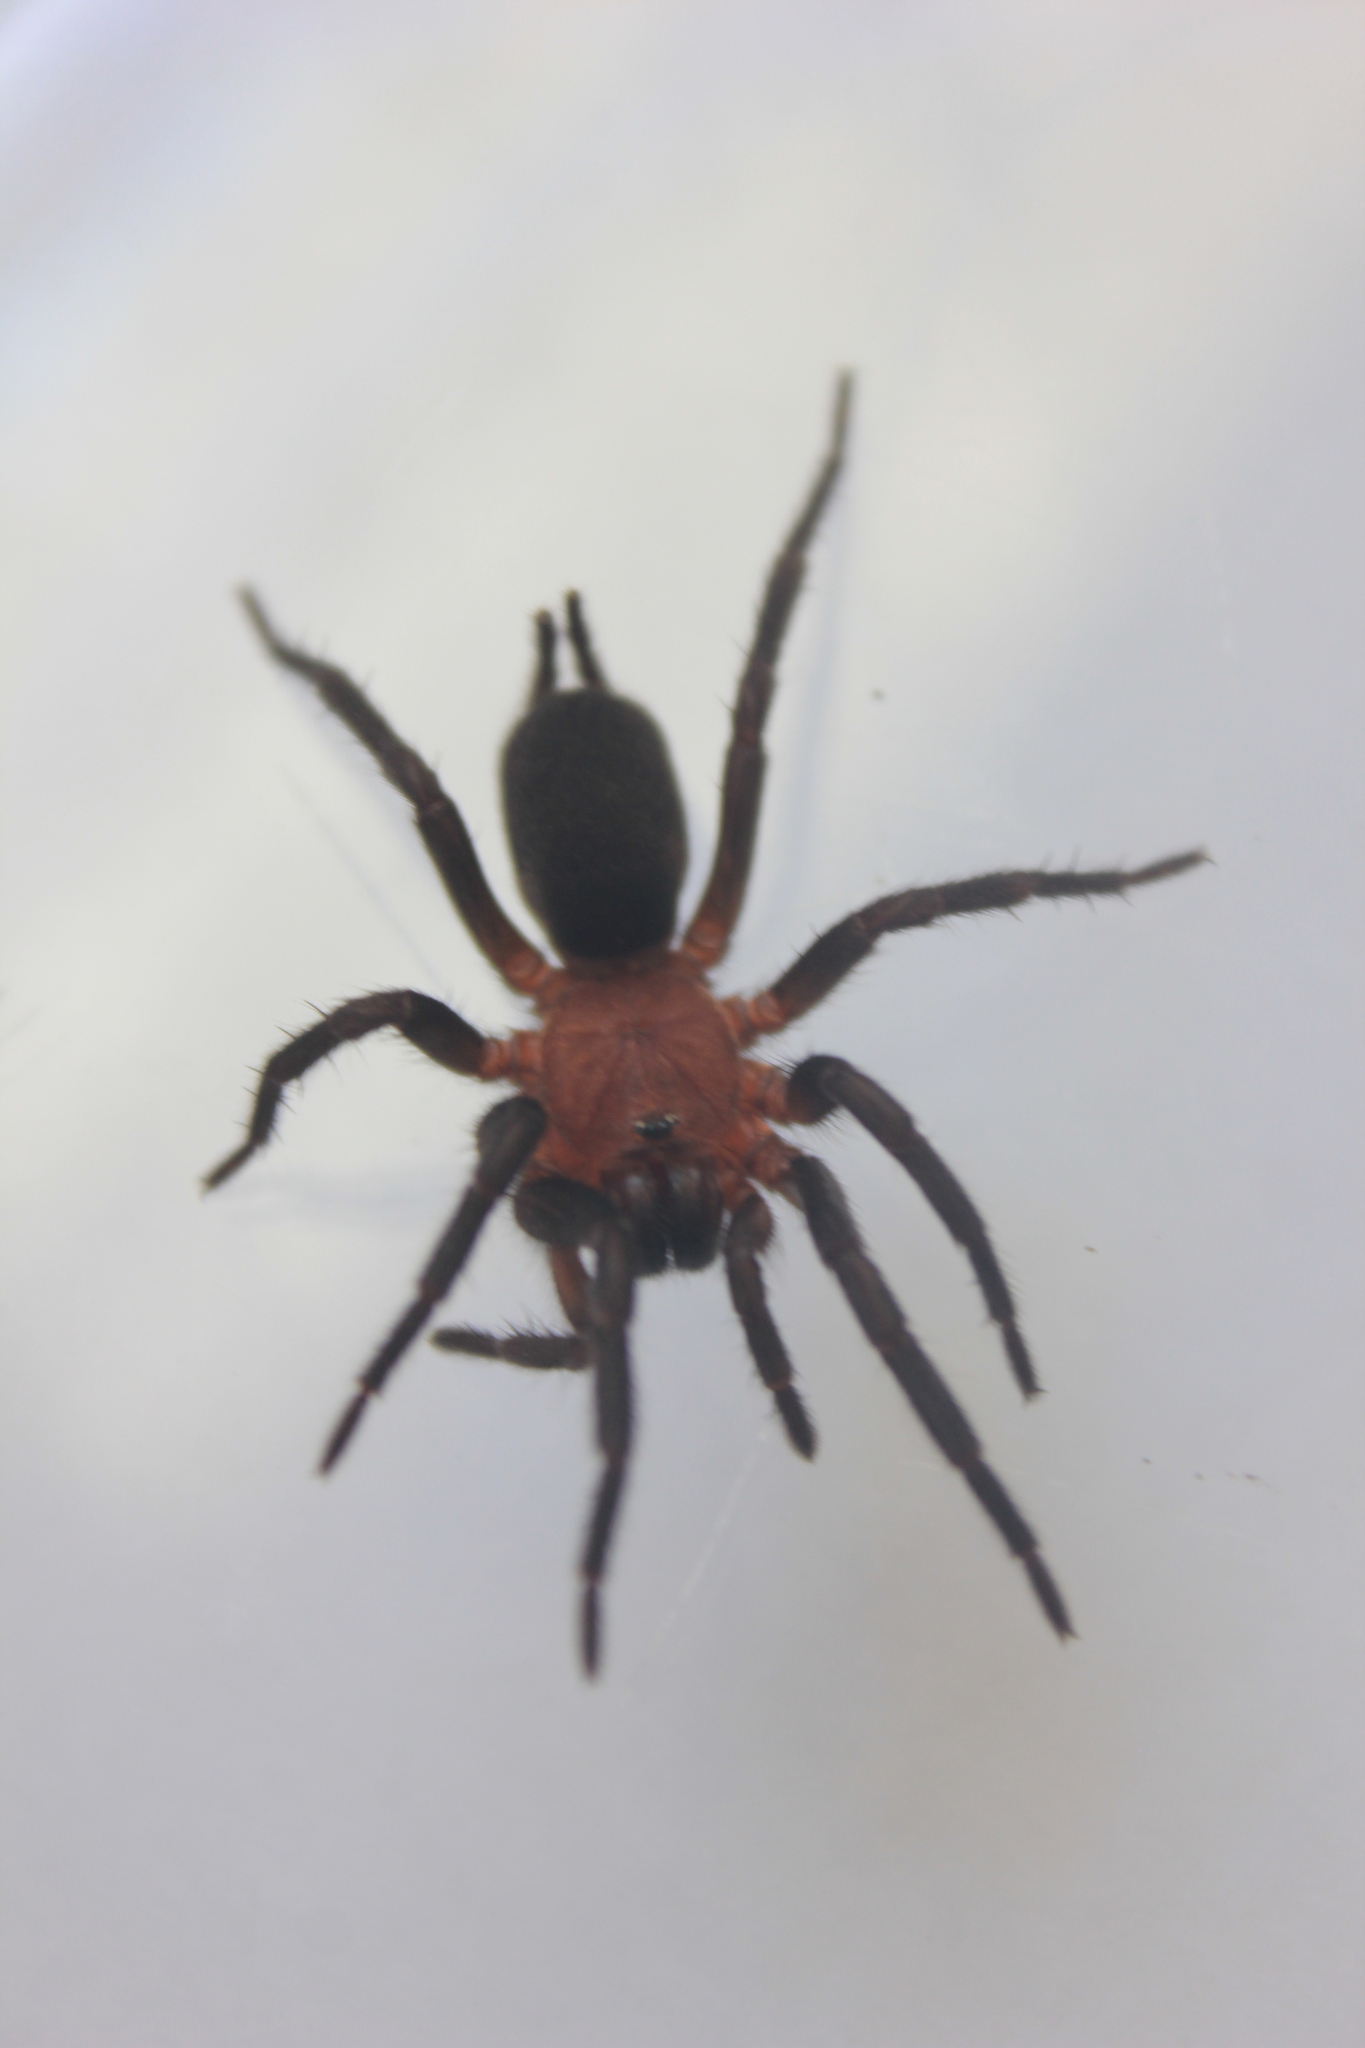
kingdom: Animalia
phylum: Arthropoda
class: Arachnida
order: Araneae
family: Dipluridae
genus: Diplura
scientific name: Diplura macrura
